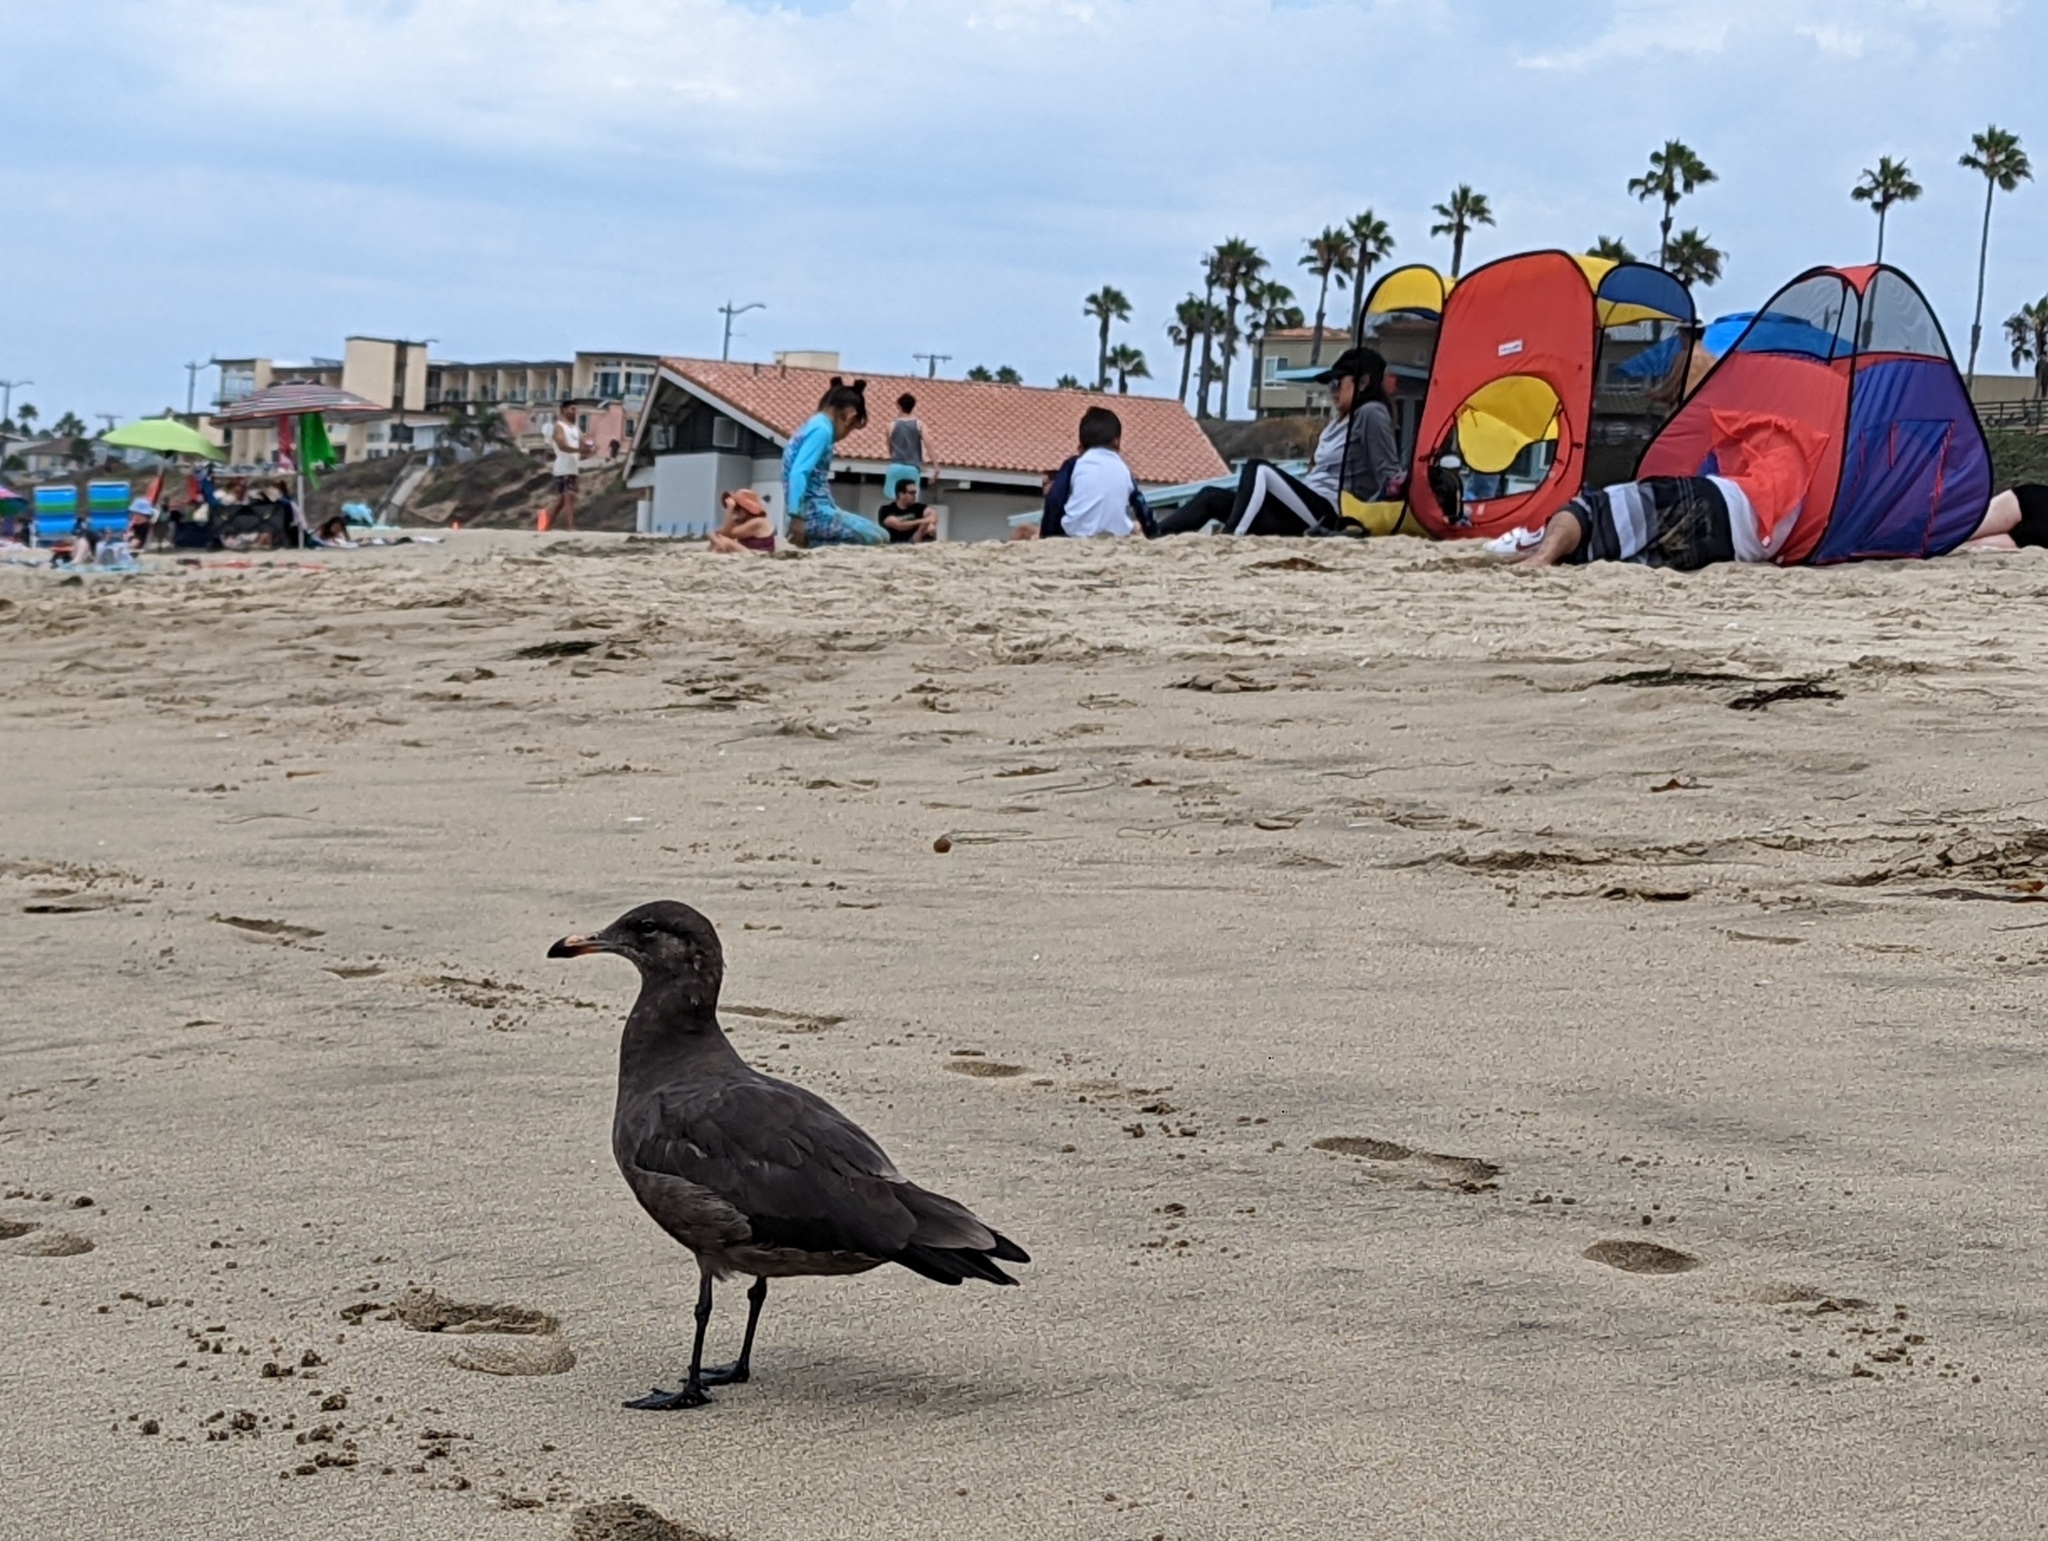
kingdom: Animalia
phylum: Chordata
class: Aves
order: Charadriiformes
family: Laridae
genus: Larus
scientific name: Larus heermanni
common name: Heermann's gull
